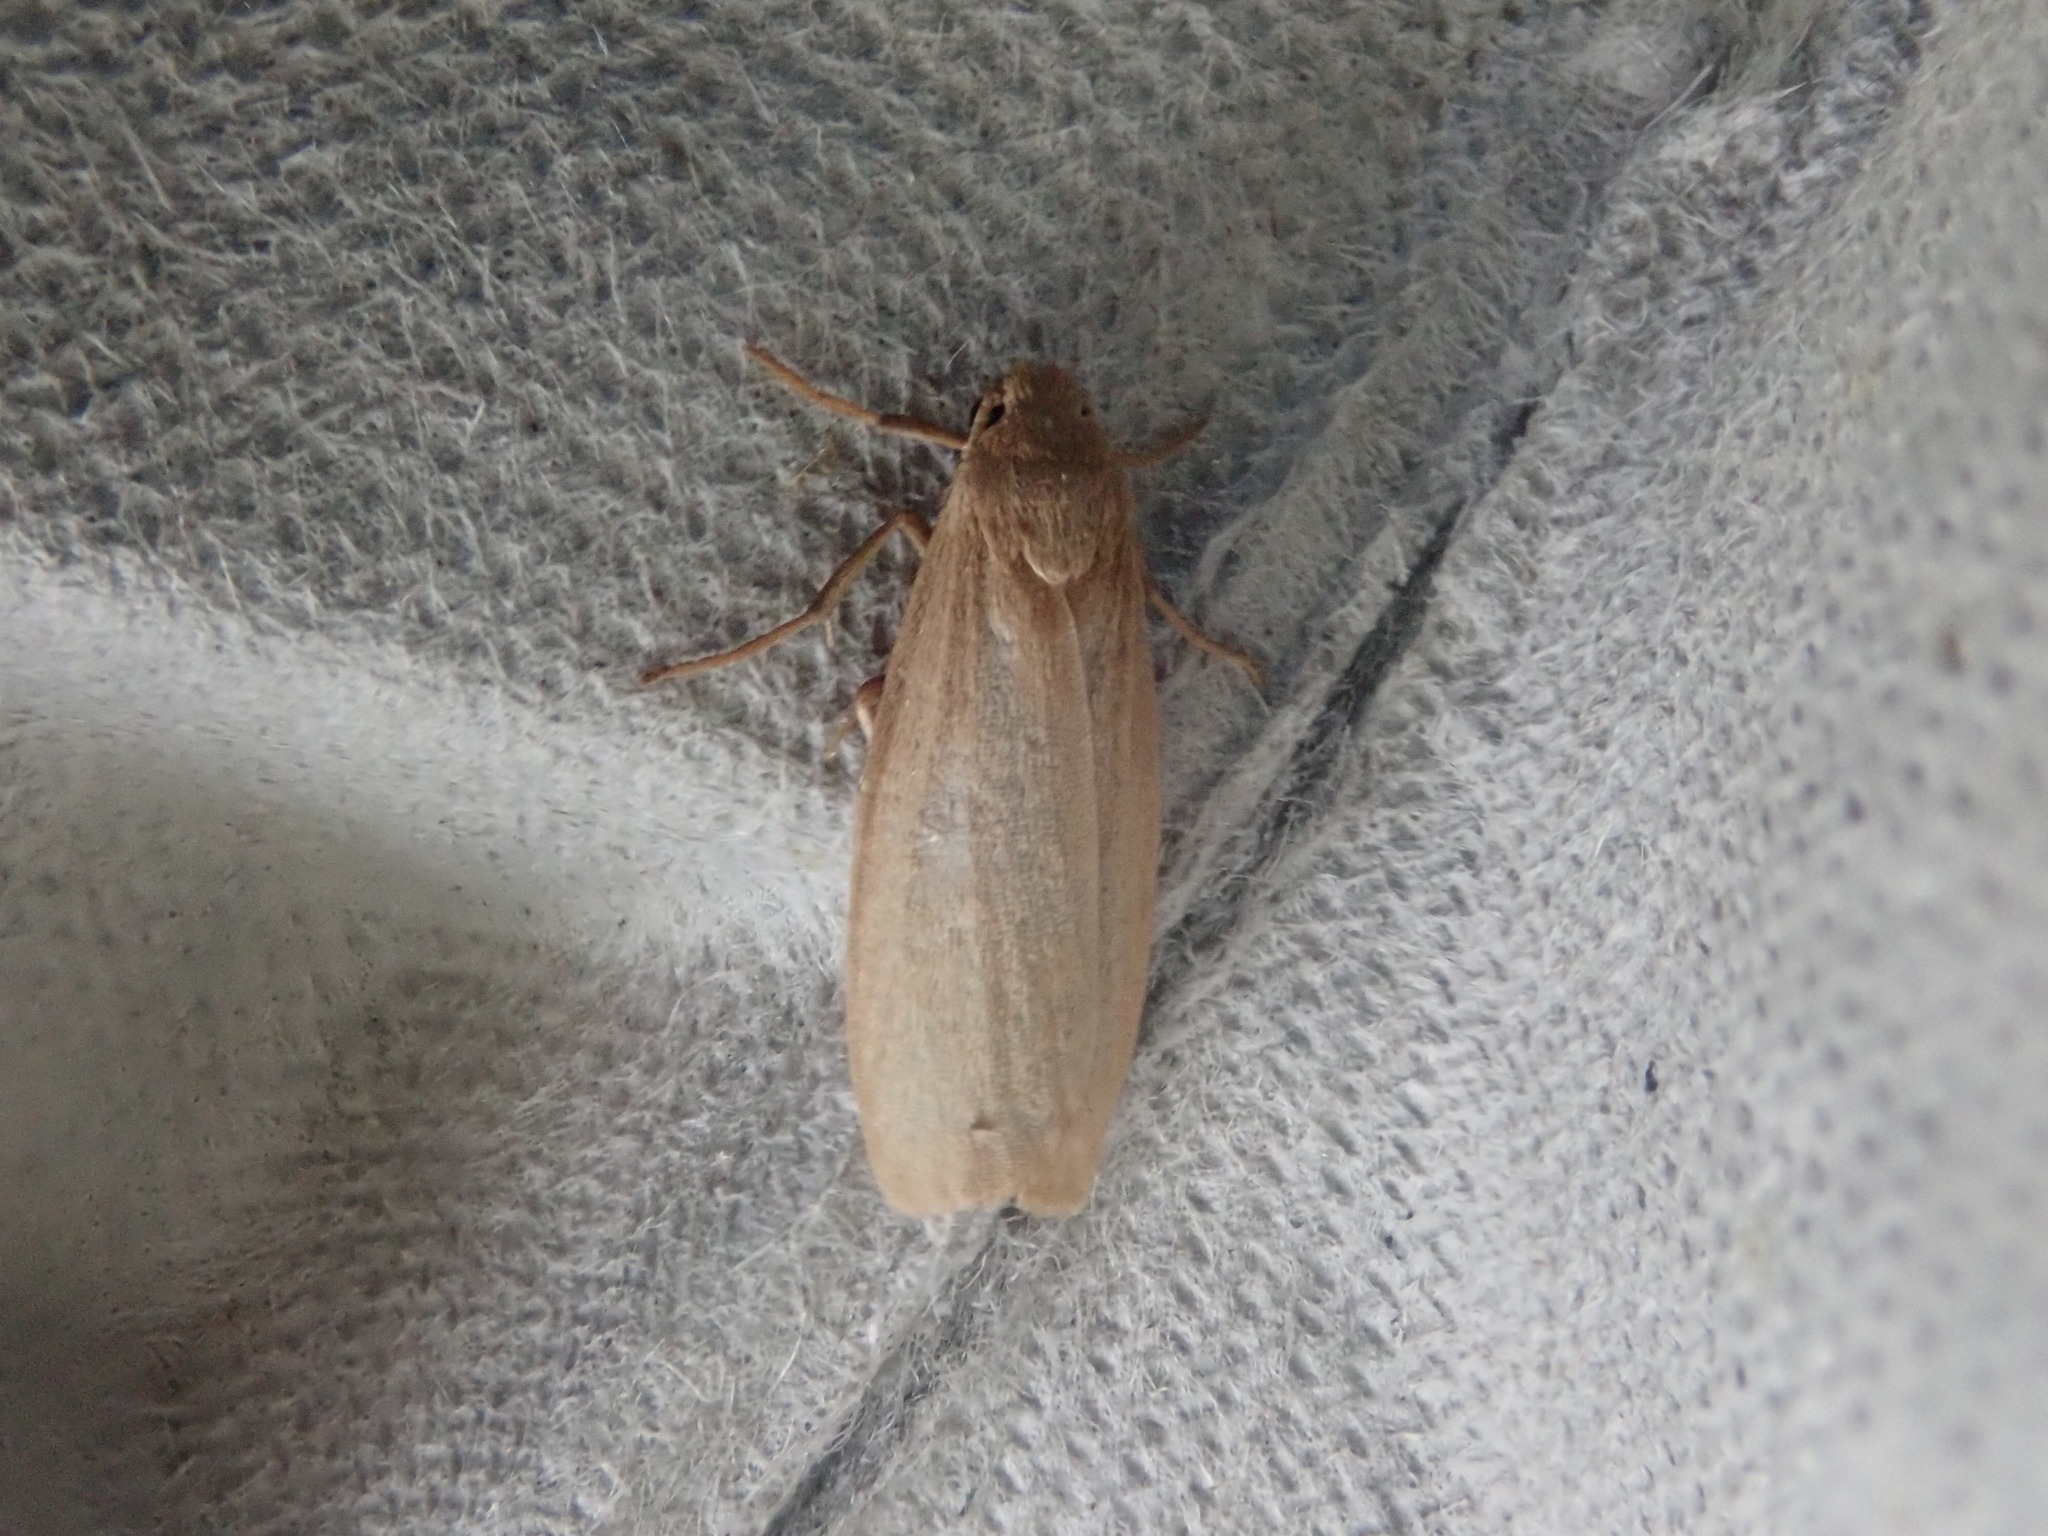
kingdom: Animalia
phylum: Arthropoda
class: Insecta
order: Lepidoptera
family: Erebidae
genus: Crambidia
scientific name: Crambidia pallida
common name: Pale lichen moth
